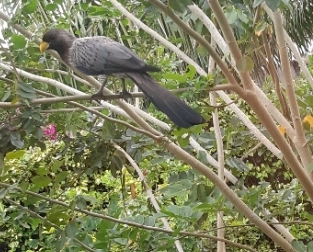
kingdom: Animalia
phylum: Chordata
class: Aves
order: Musophagiformes
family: Musophagidae
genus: Crinifer
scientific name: Crinifer piscator
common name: Western plantain-eater
